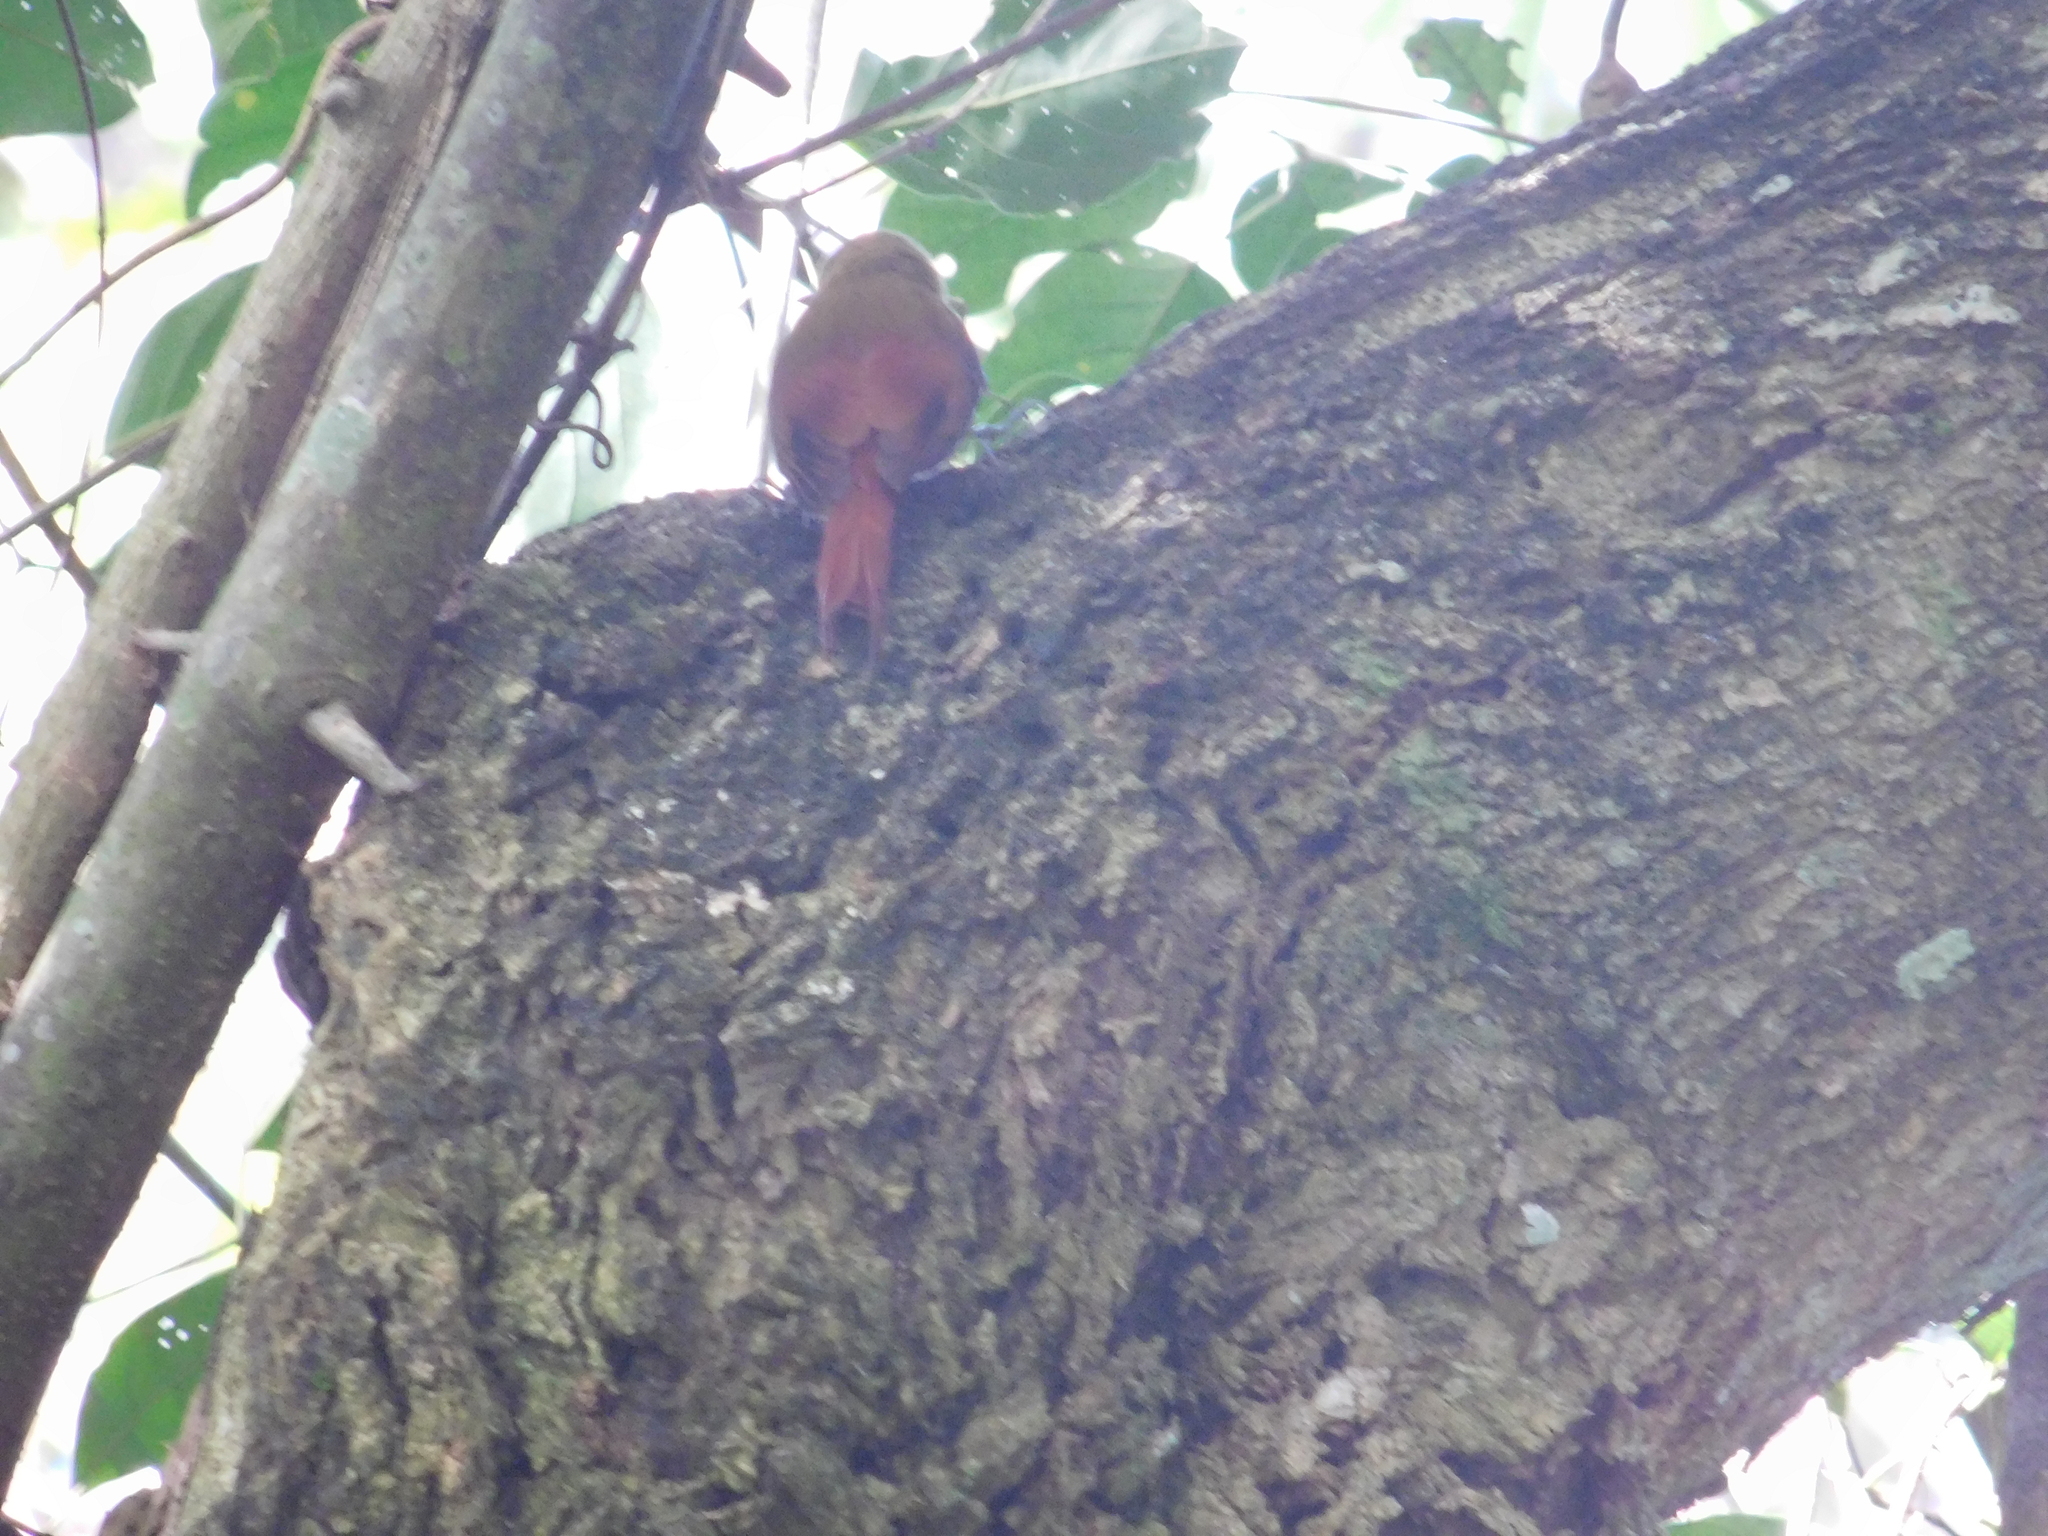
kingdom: Animalia
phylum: Chordata
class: Aves
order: Passeriformes
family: Furnariidae
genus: Sittasomus
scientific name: Sittasomus griseicapillus
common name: Olivaceous woodcreeper
